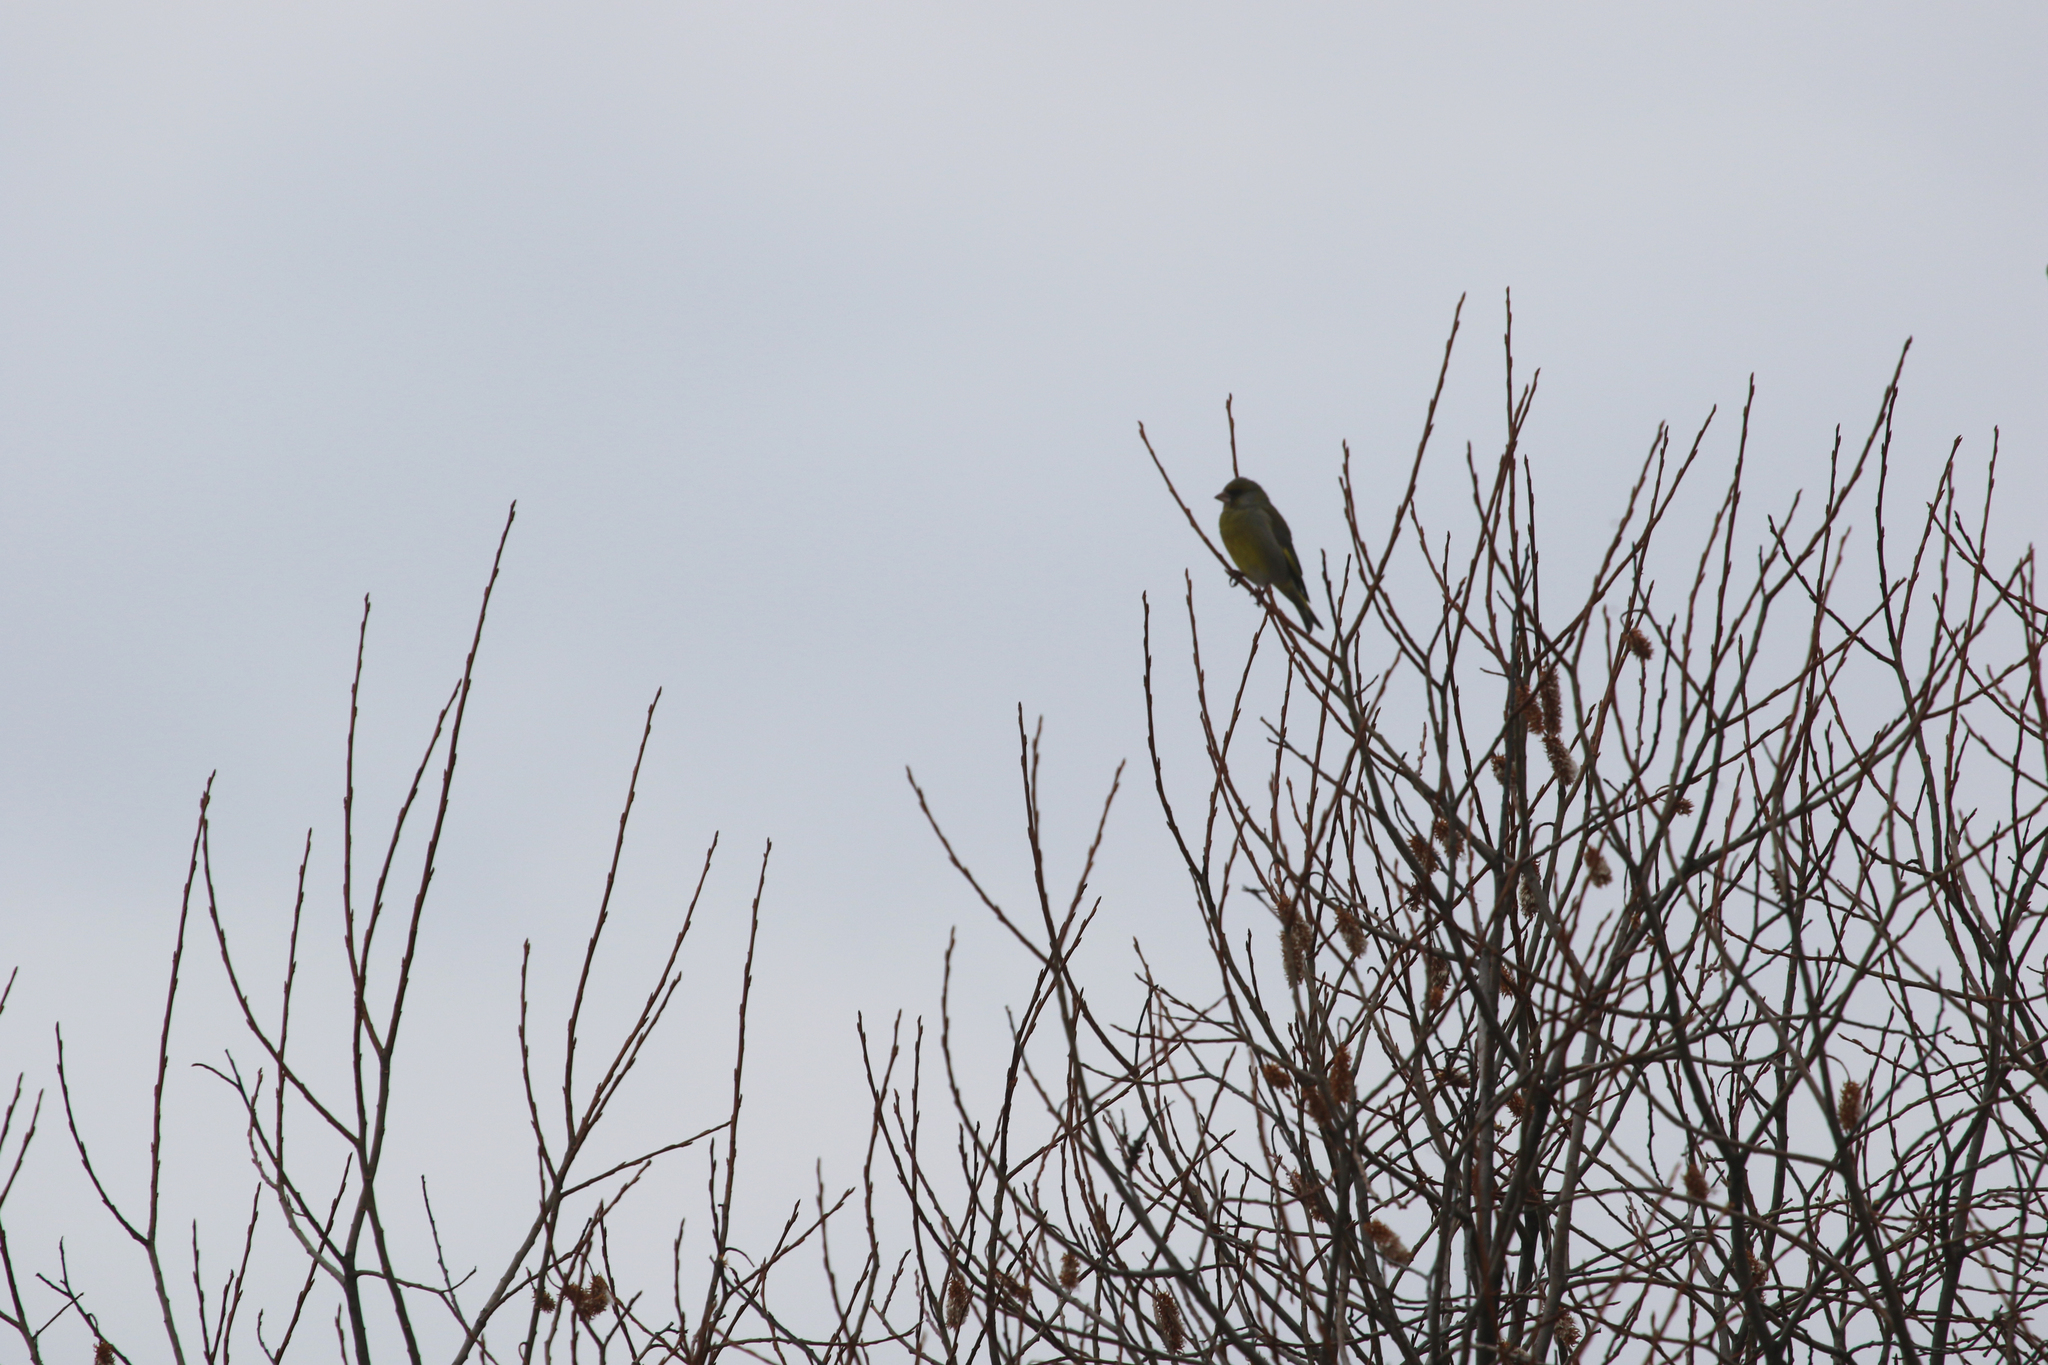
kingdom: Plantae
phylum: Tracheophyta
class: Liliopsida
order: Poales
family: Poaceae
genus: Chloris
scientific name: Chloris chloris
